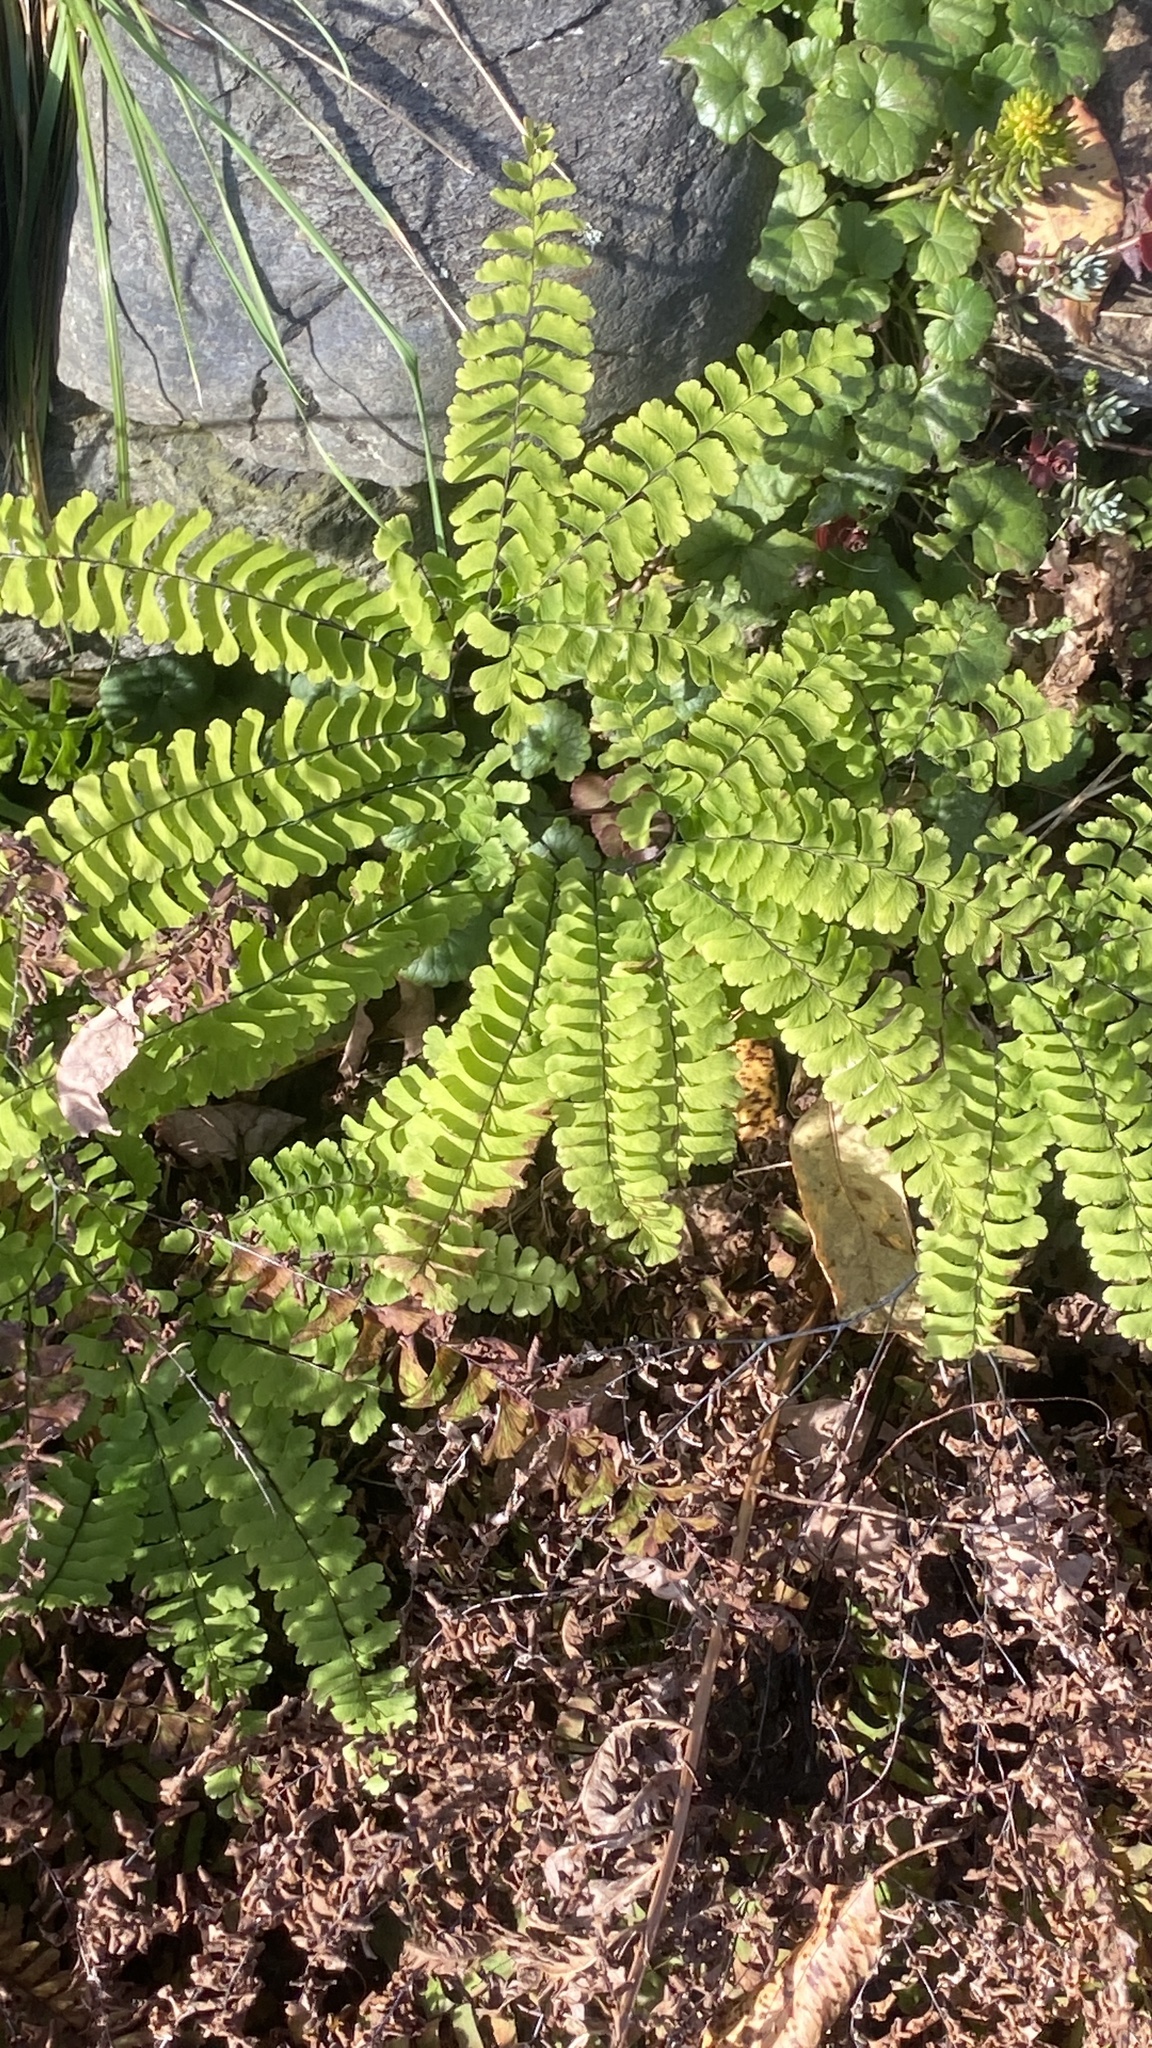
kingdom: Plantae
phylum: Tracheophyta
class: Polypodiopsida
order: Polypodiales
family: Pteridaceae
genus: Adiantum
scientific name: Adiantum pedatum
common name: Five-finger fern
